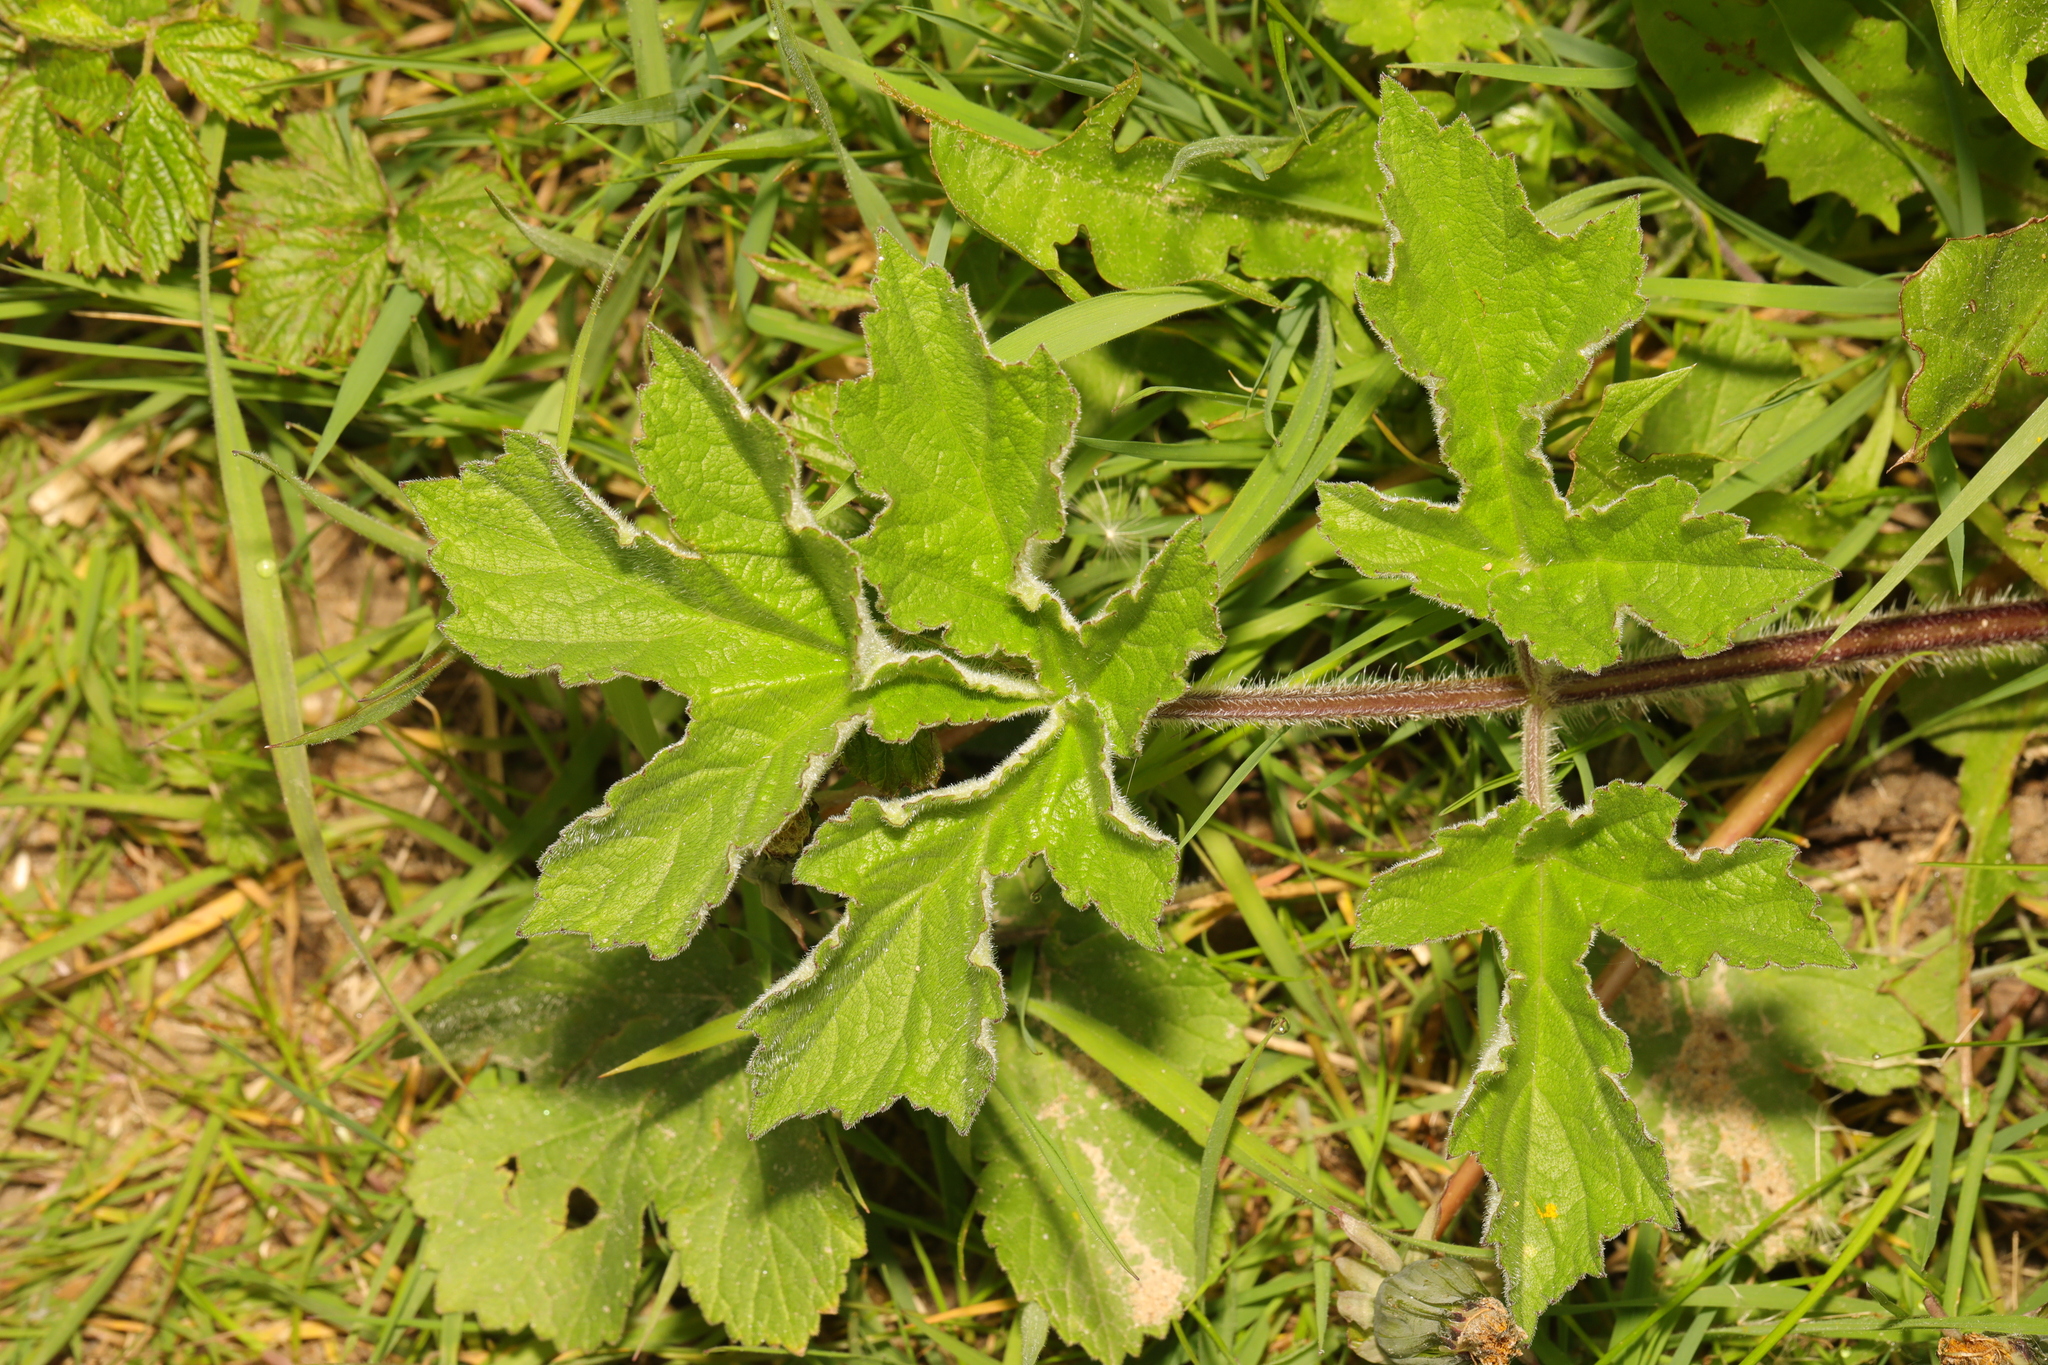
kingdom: Plantae
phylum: Tracheophyta
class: Magnoliopsida
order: Apiales
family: Apiaceae
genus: Heracleum
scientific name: Heracleum sphondylium
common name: Hogweed
